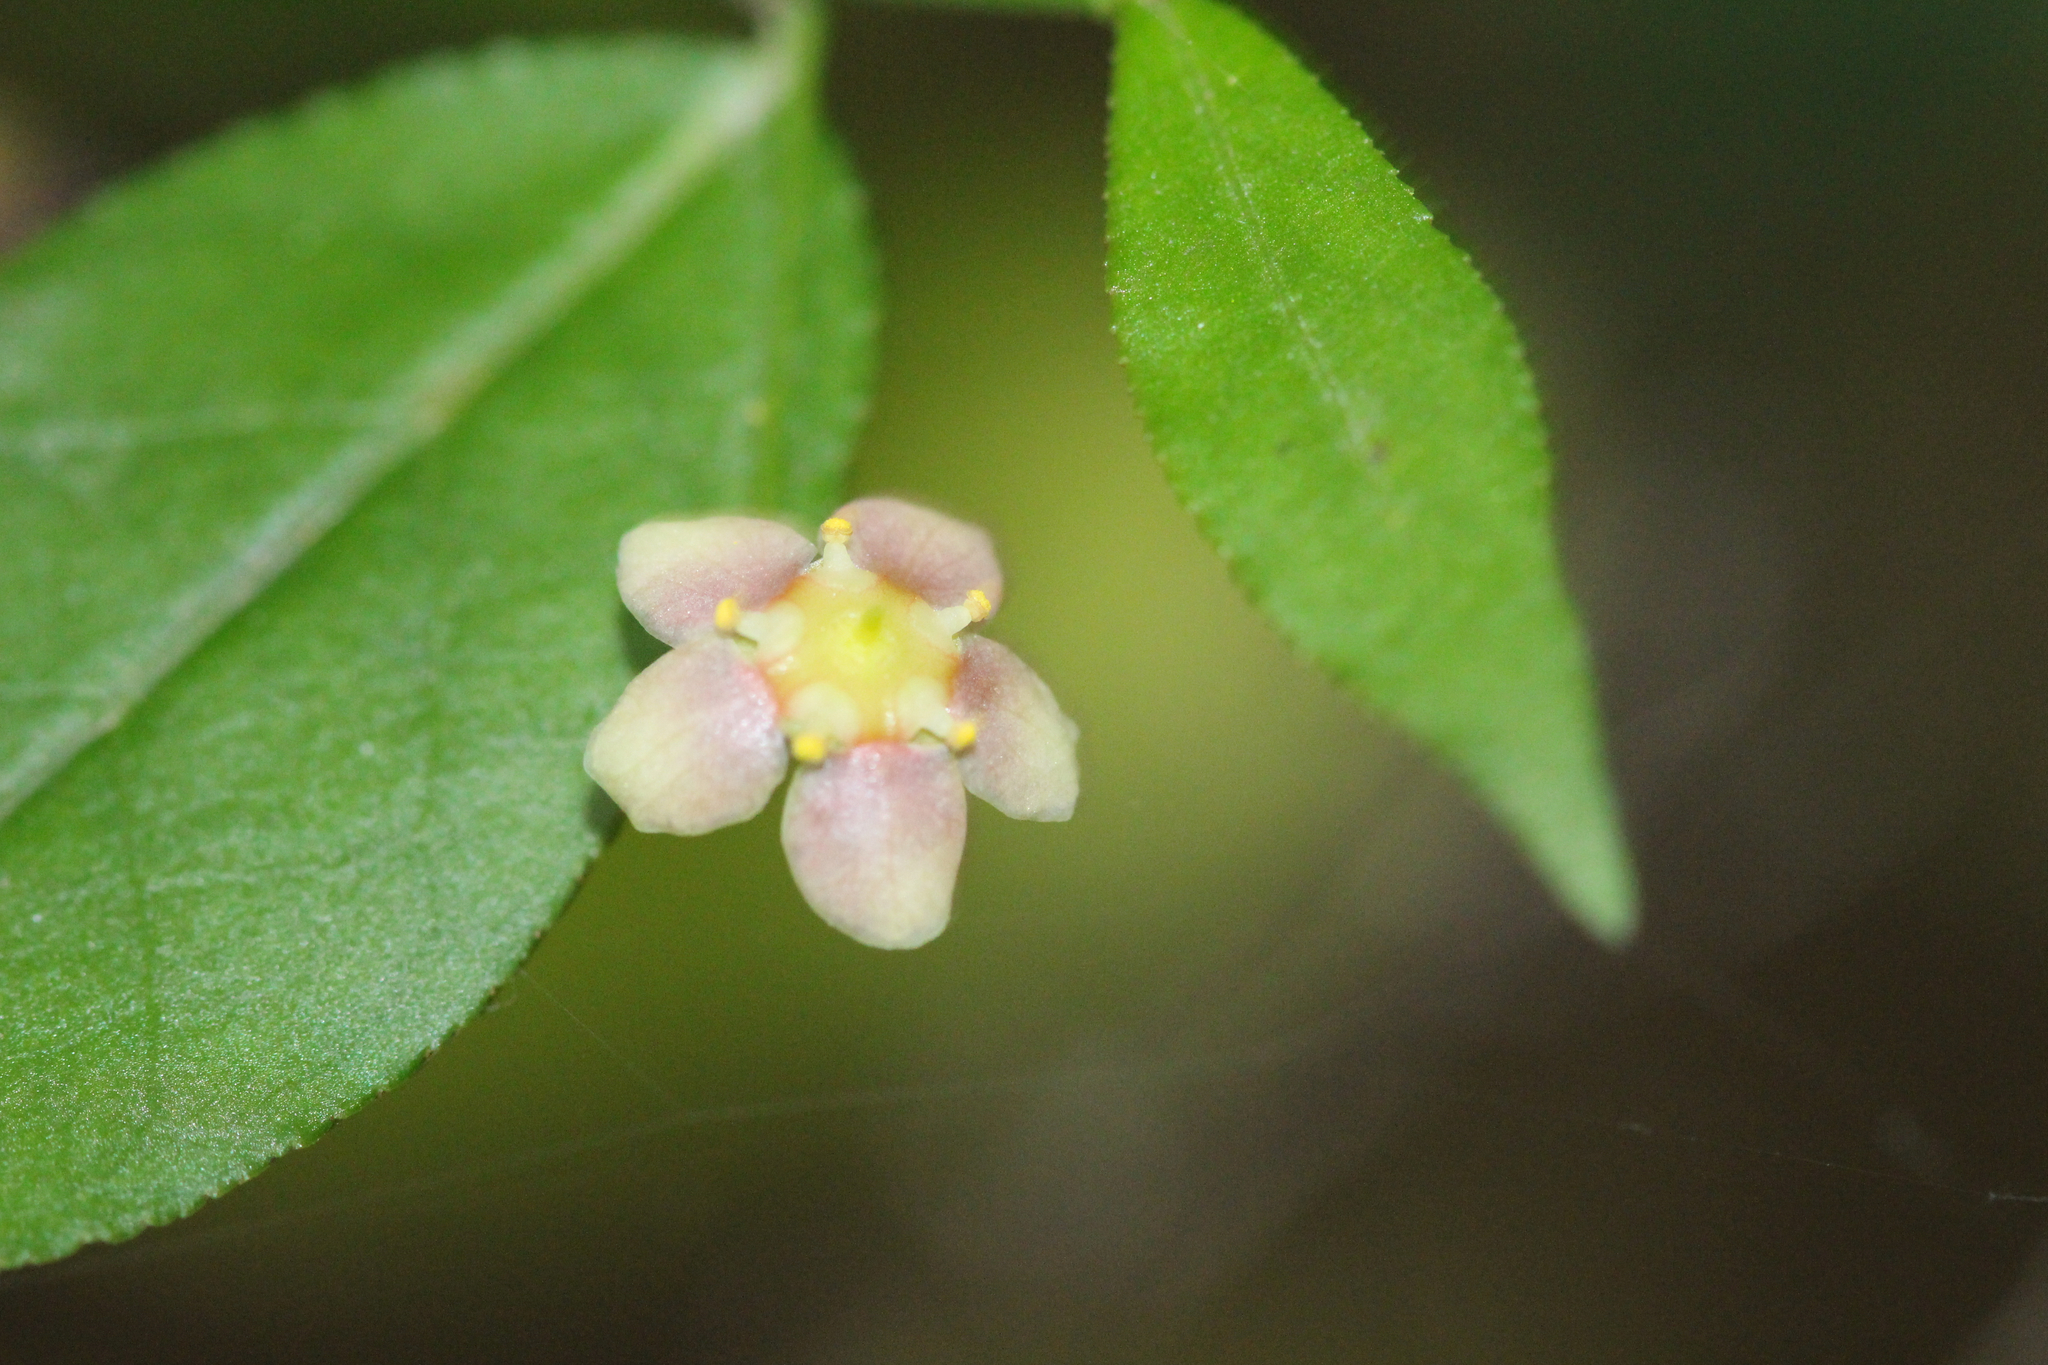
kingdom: Plantae
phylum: Tracheophyta
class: Magnoliopsida
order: Celastrales
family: Celastraceae
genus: Euonymus
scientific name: Euonymus americanus
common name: Bursting-heart
